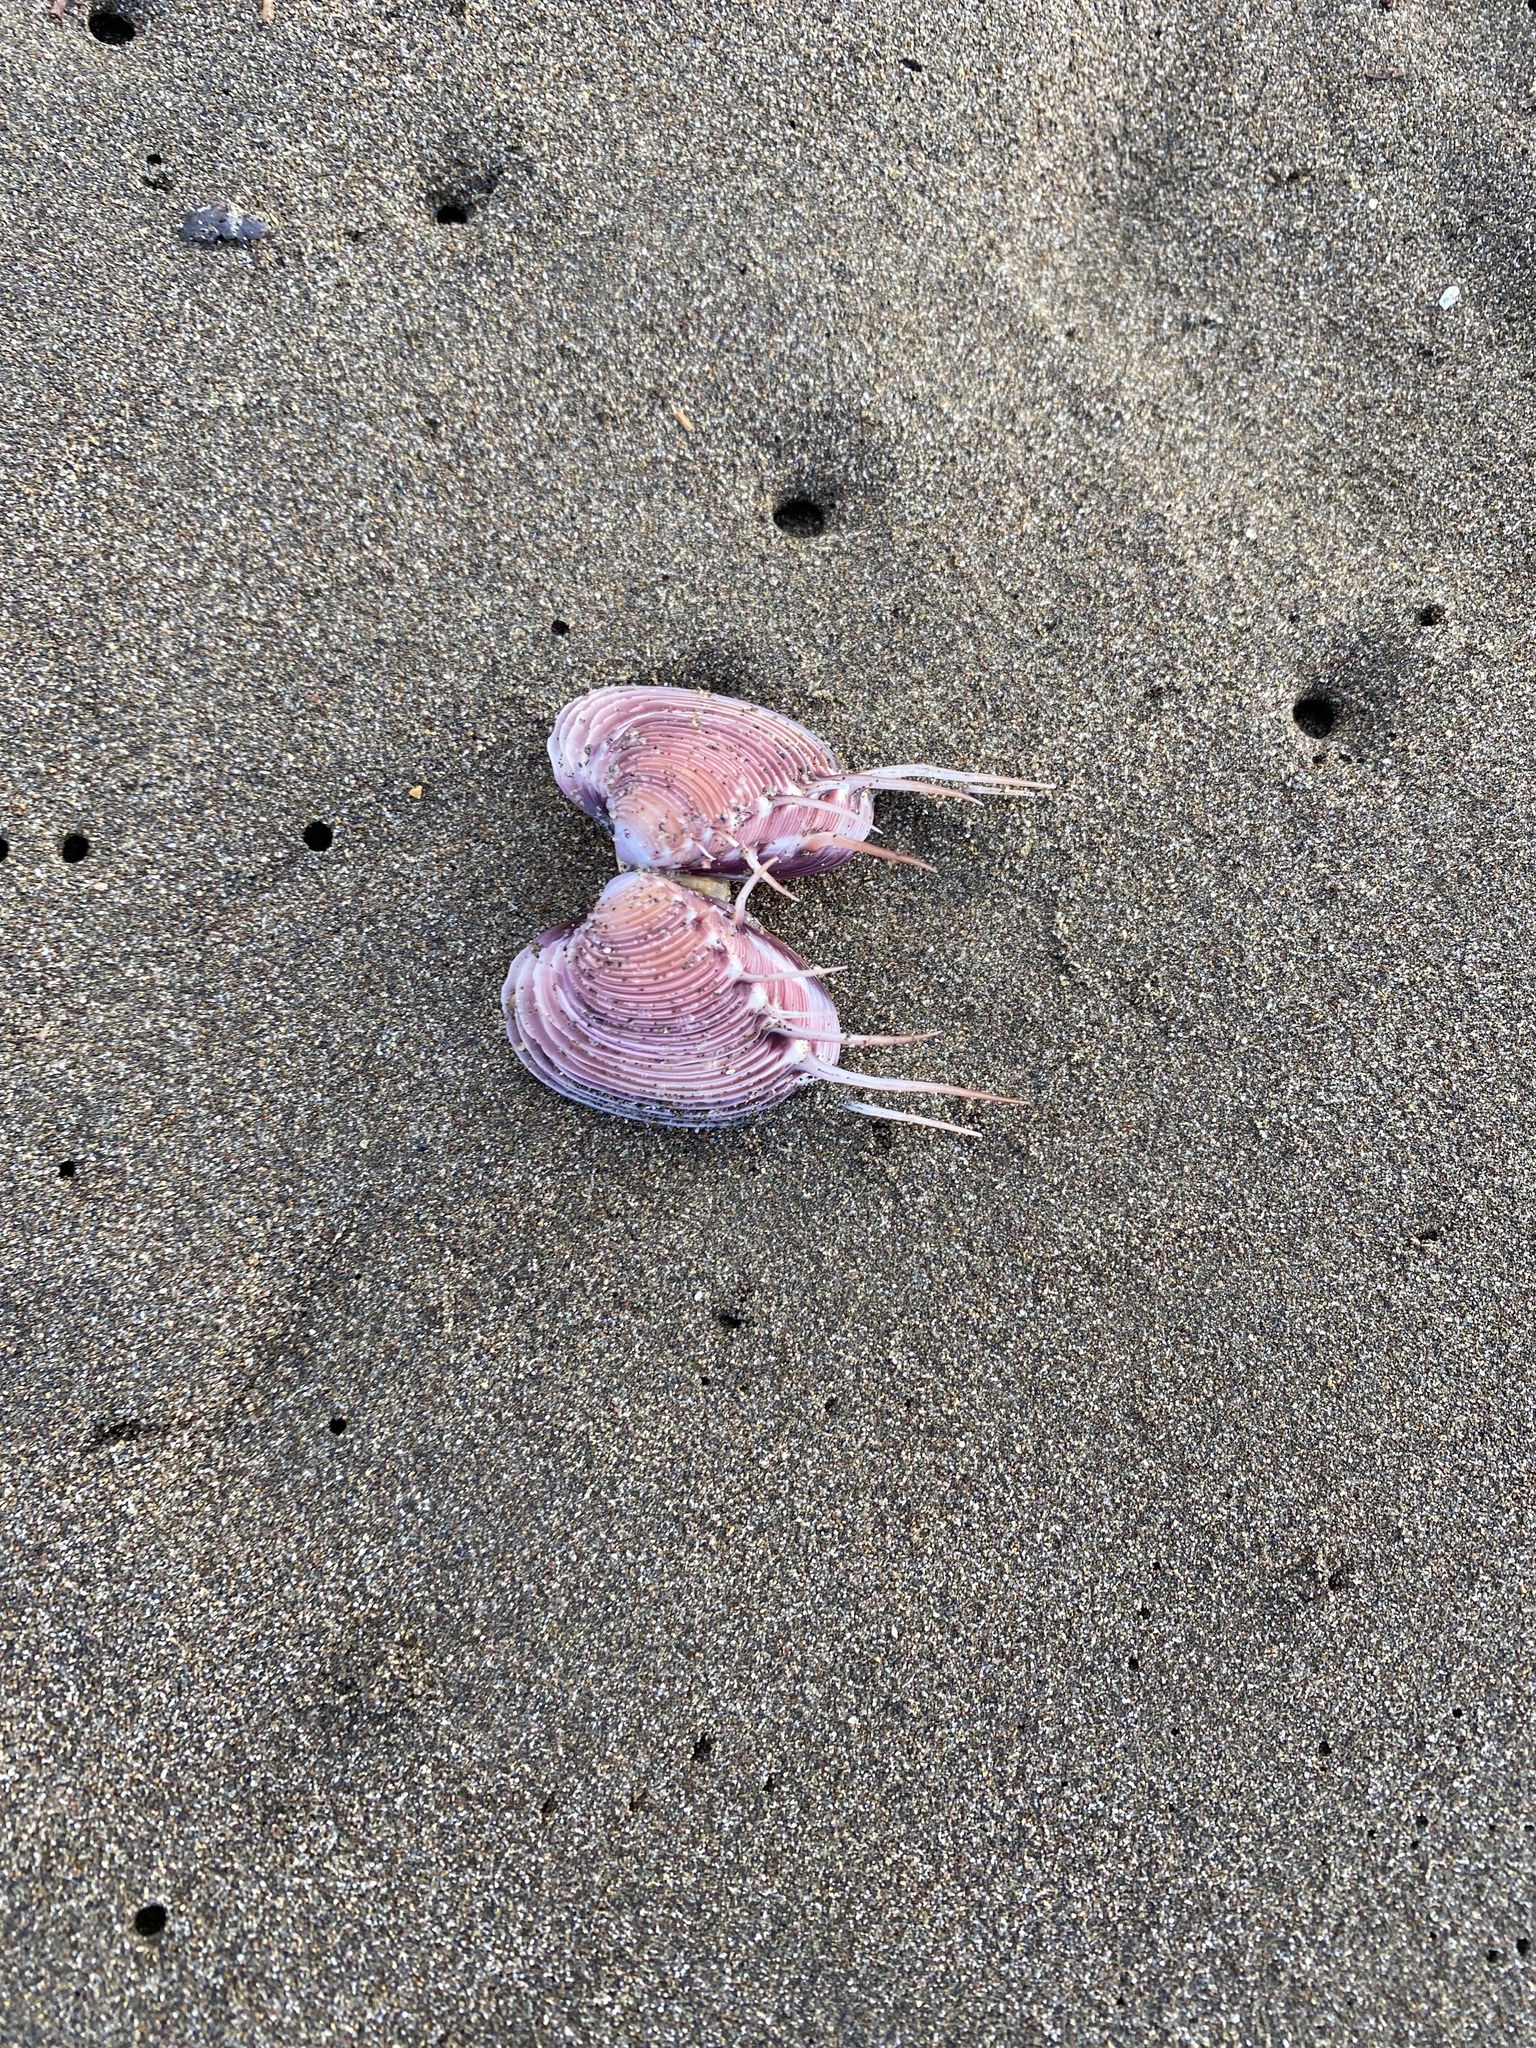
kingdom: Animalia
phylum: Mollusca
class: Bivalvia
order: Venerida
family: Veneridae
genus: Hysteroconcha
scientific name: Hysteroconcha lupanaria
